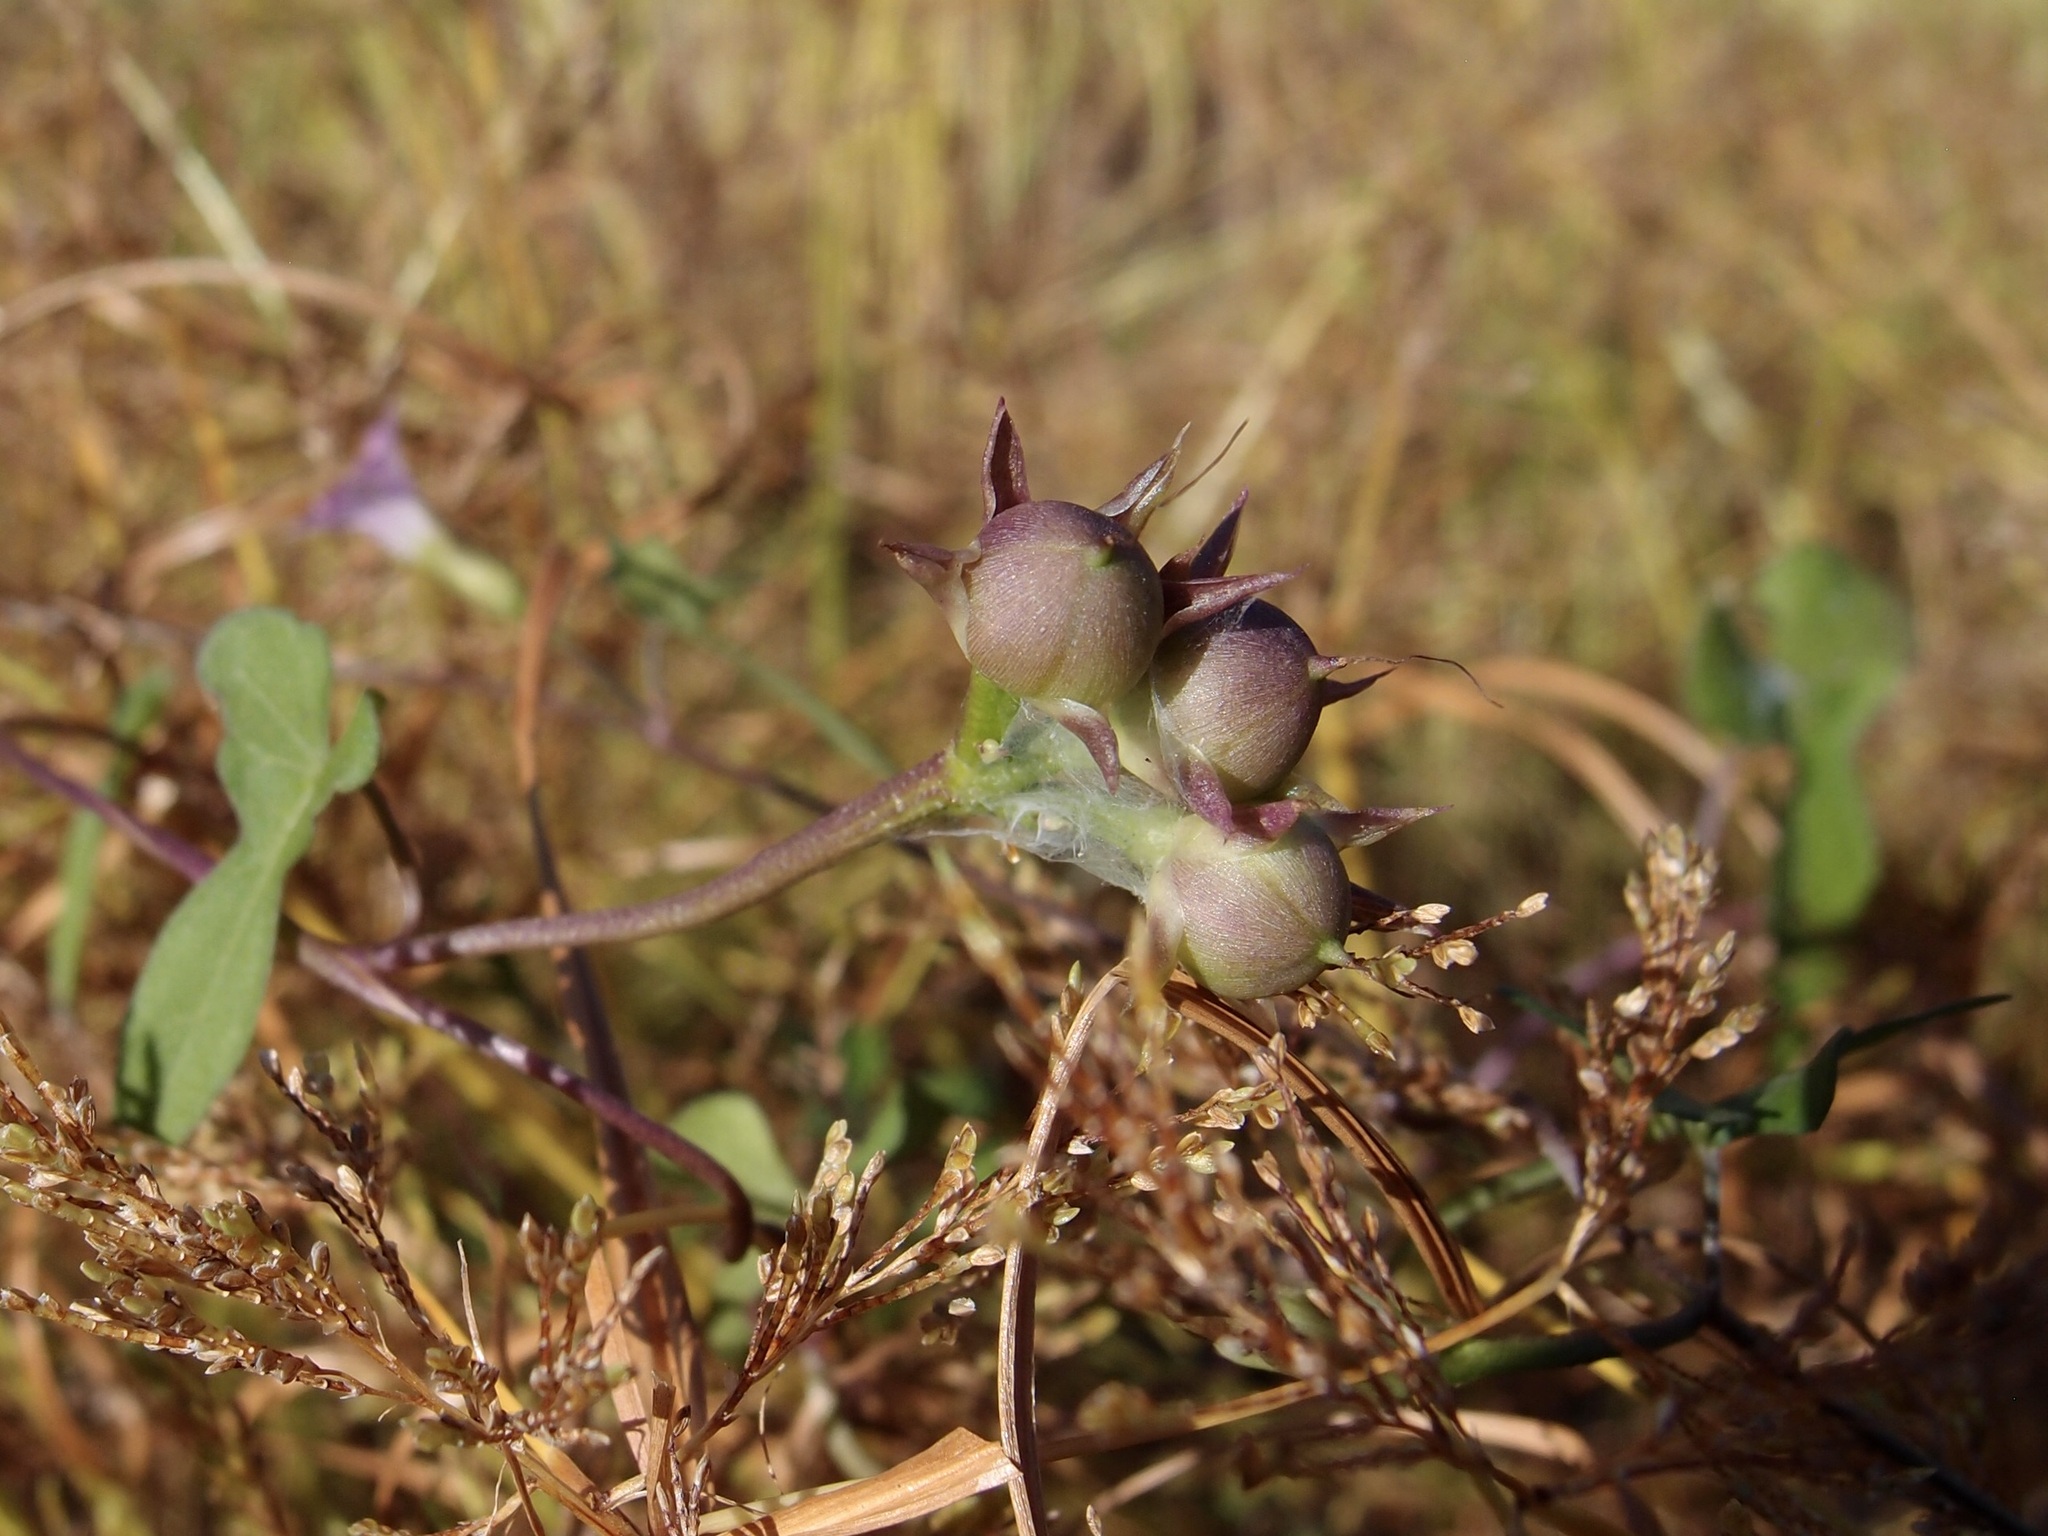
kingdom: Plantae
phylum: Tracheophyta
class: Magnoliopsida
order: Solanales
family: Convolvulaceae
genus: Ipomoea
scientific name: Ipomoea leucantha
